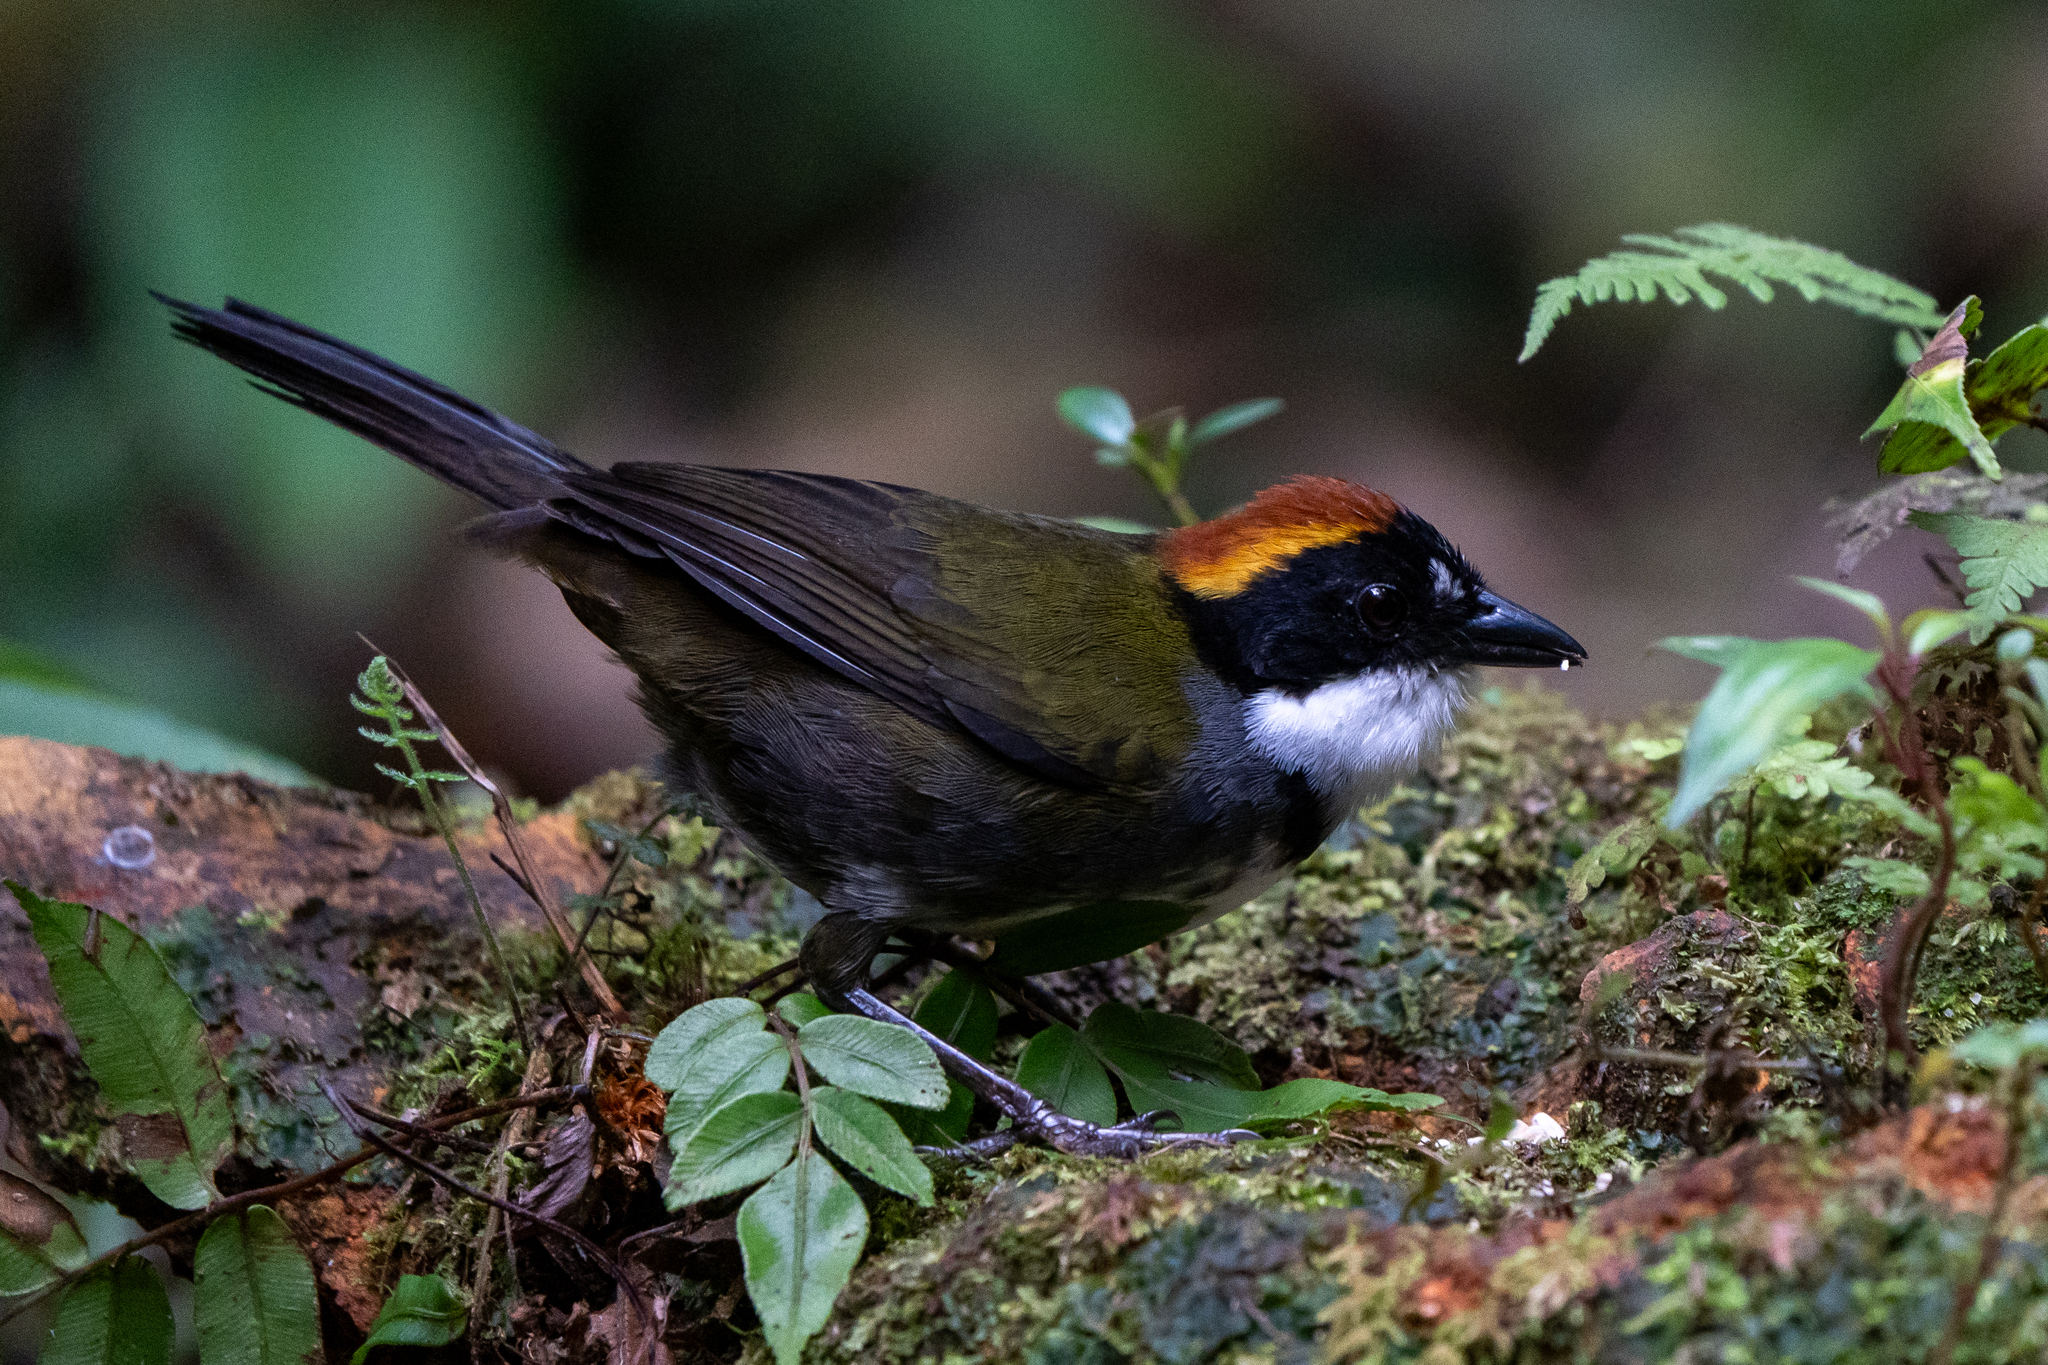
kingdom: Animalia
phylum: Chordata
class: Aves
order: Passeriformes
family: Passerellidae
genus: Arremon
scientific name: Arremon brunneinucha
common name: Chestnut-capped brushfinch
